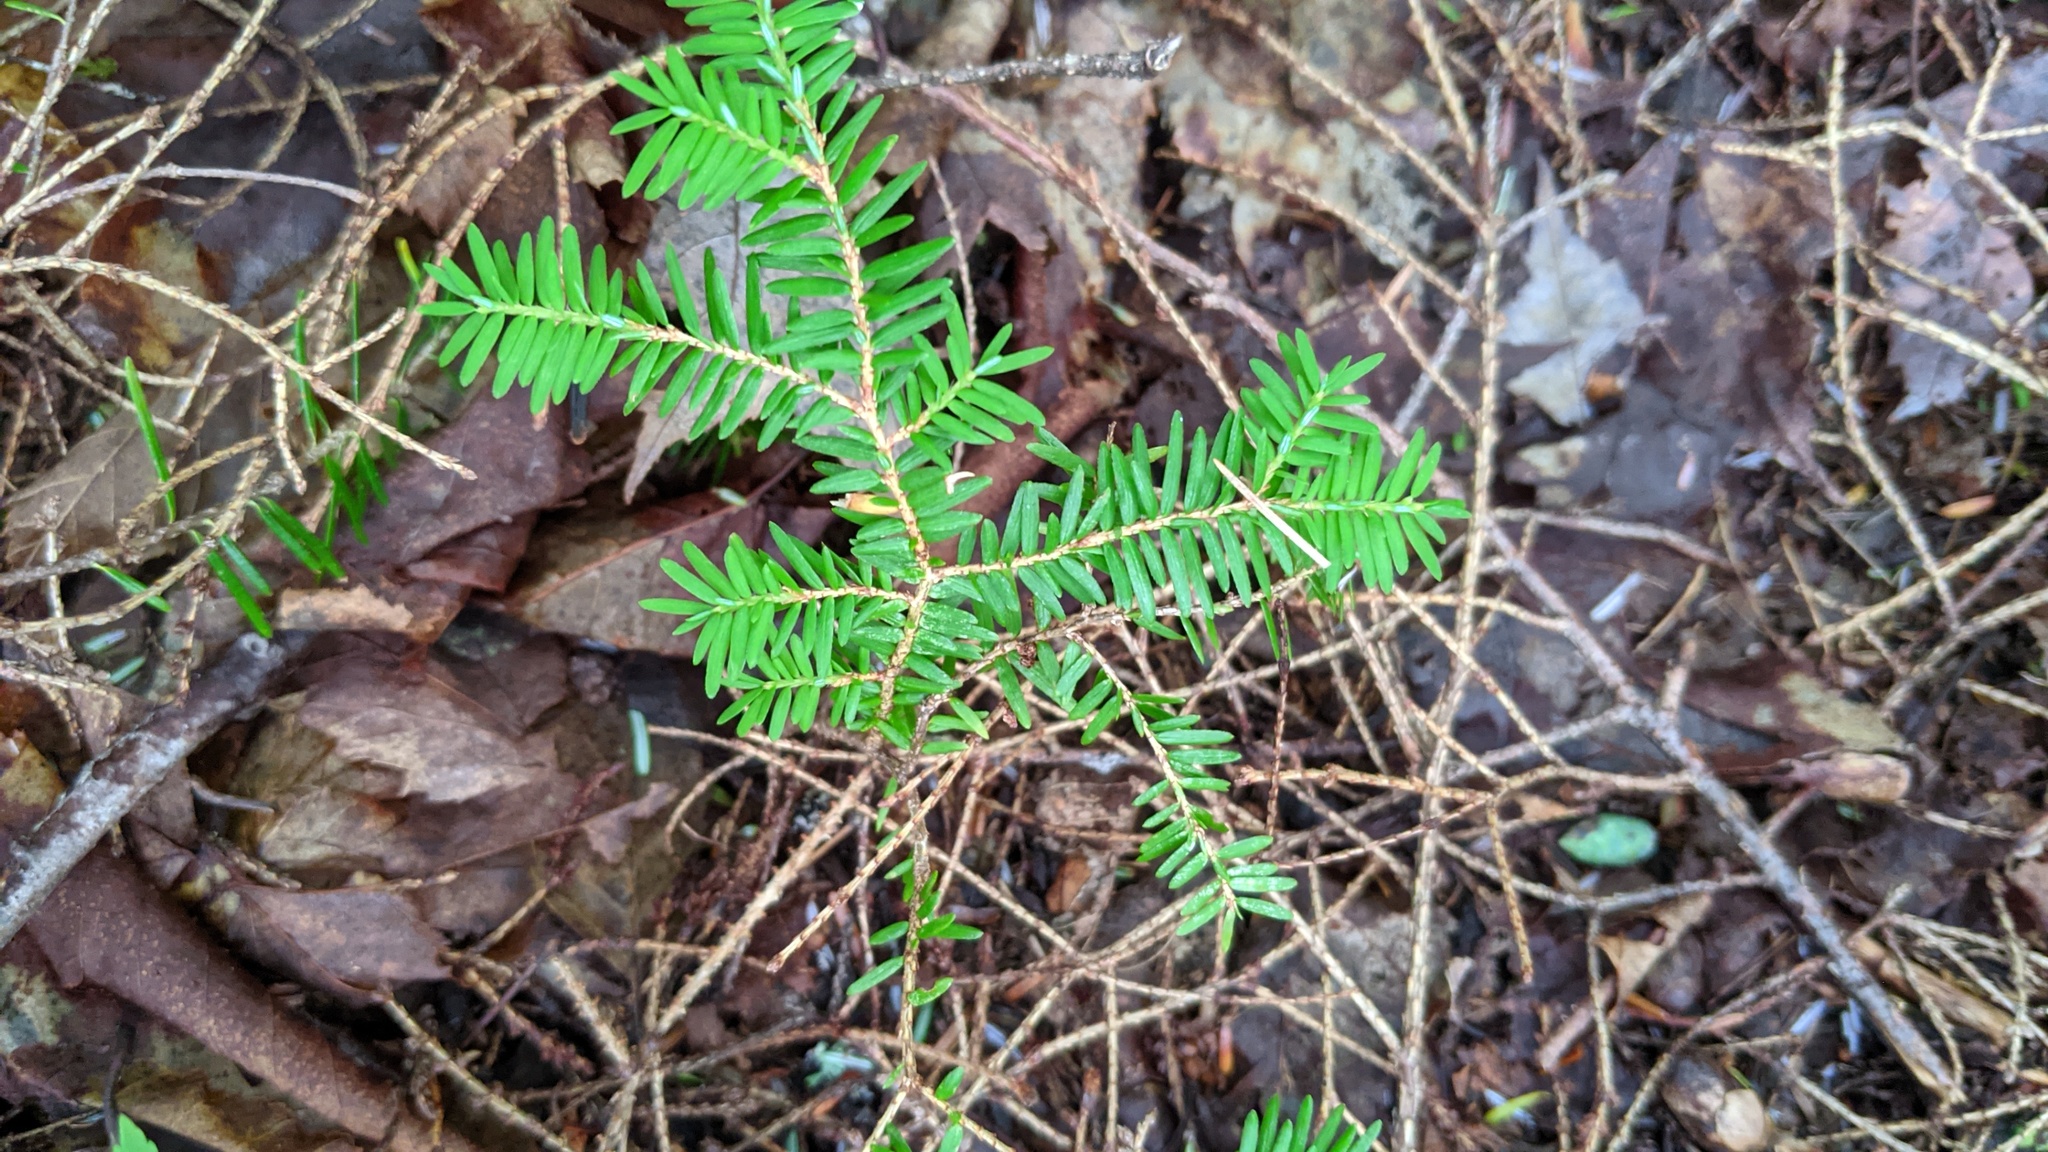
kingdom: Plantae
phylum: Tracheophyta
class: Pinopsida
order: Pinales
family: Pinaceae
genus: Tsuga
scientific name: Tsuga canadensis
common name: Eastern hemlock
